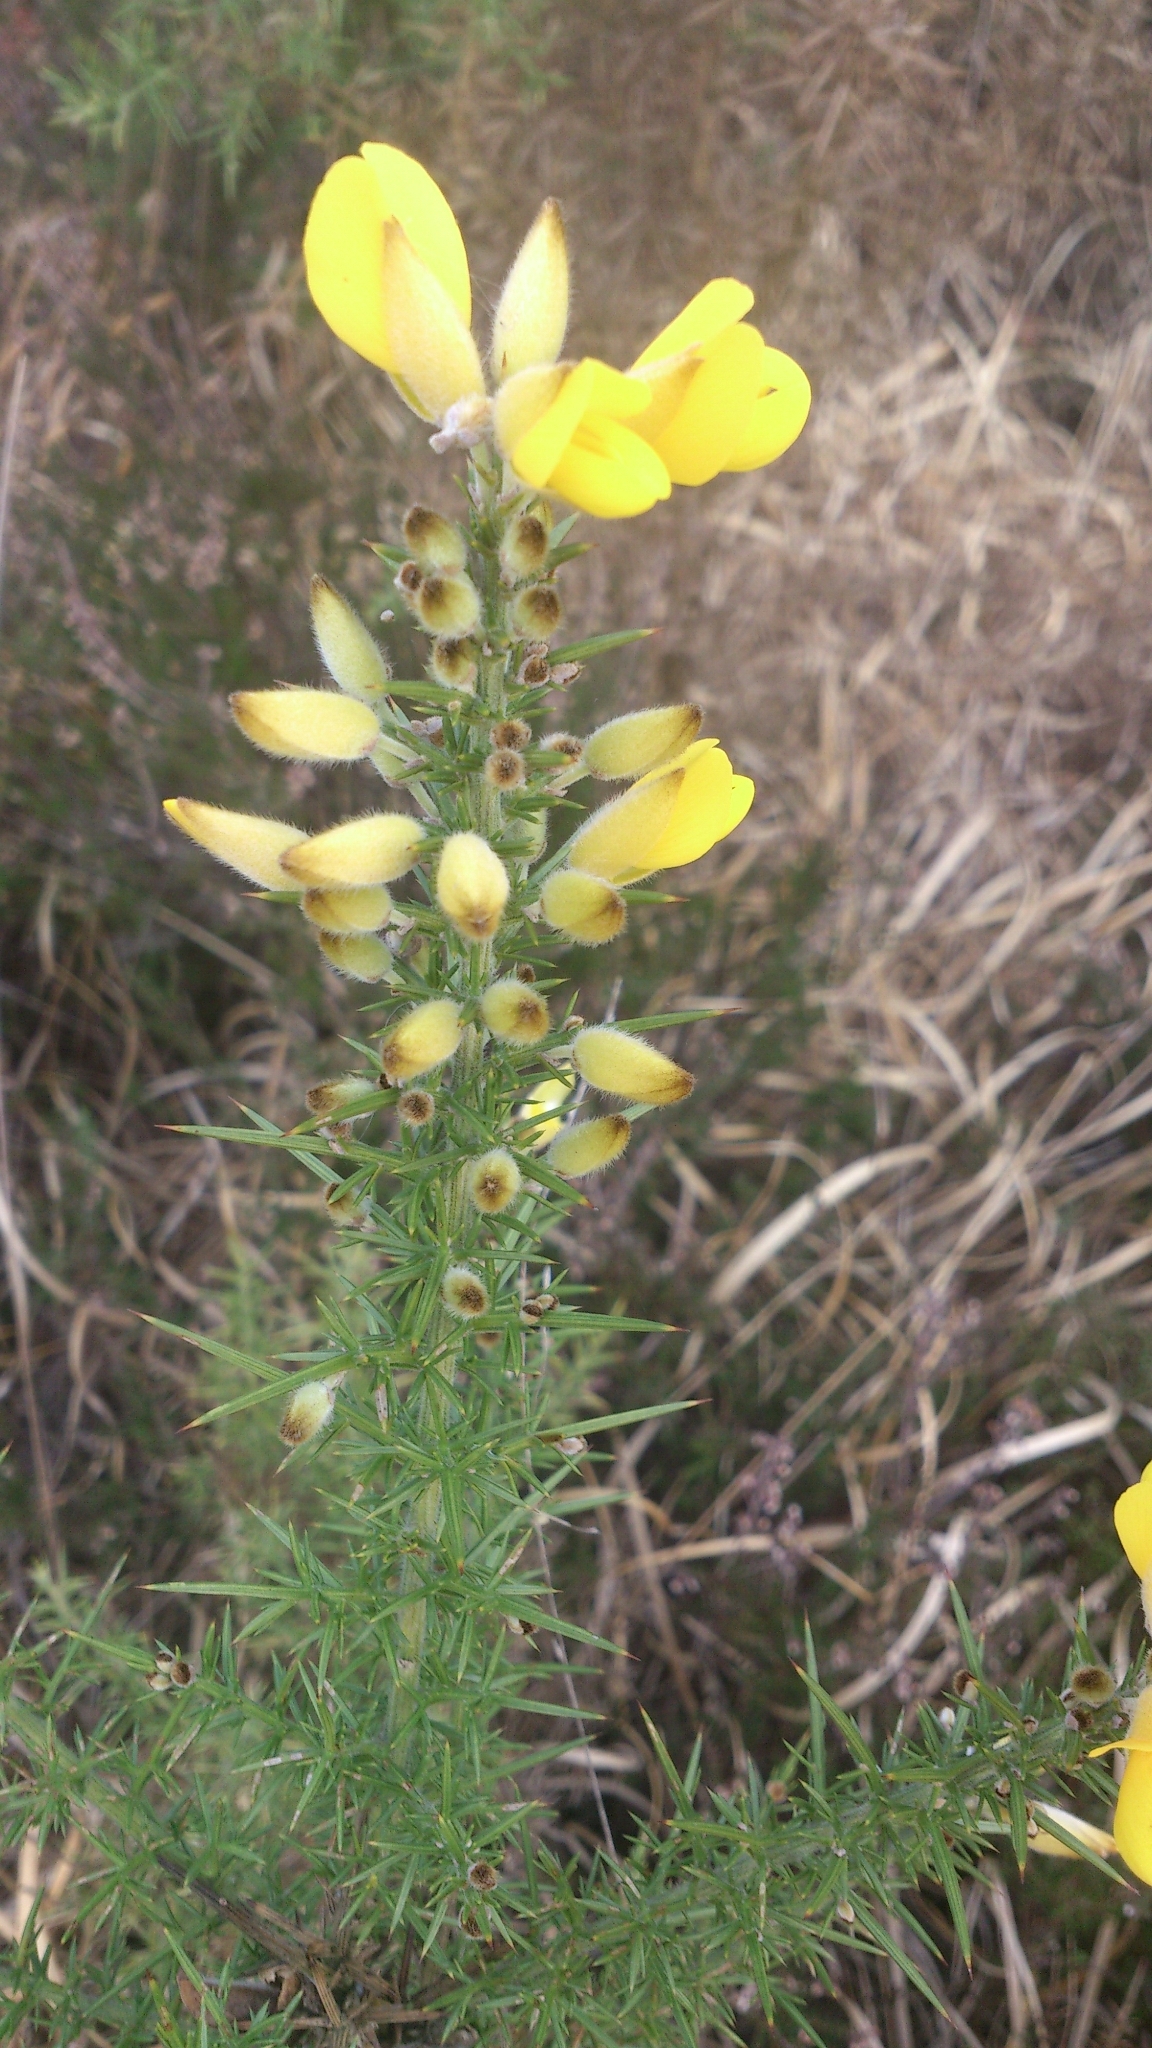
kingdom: Plantae
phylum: Tracheophyta
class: Magnoliopsida
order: Fabales
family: Fabaceae
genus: Ulex
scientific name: Ulex europaeus
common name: Common gorse
